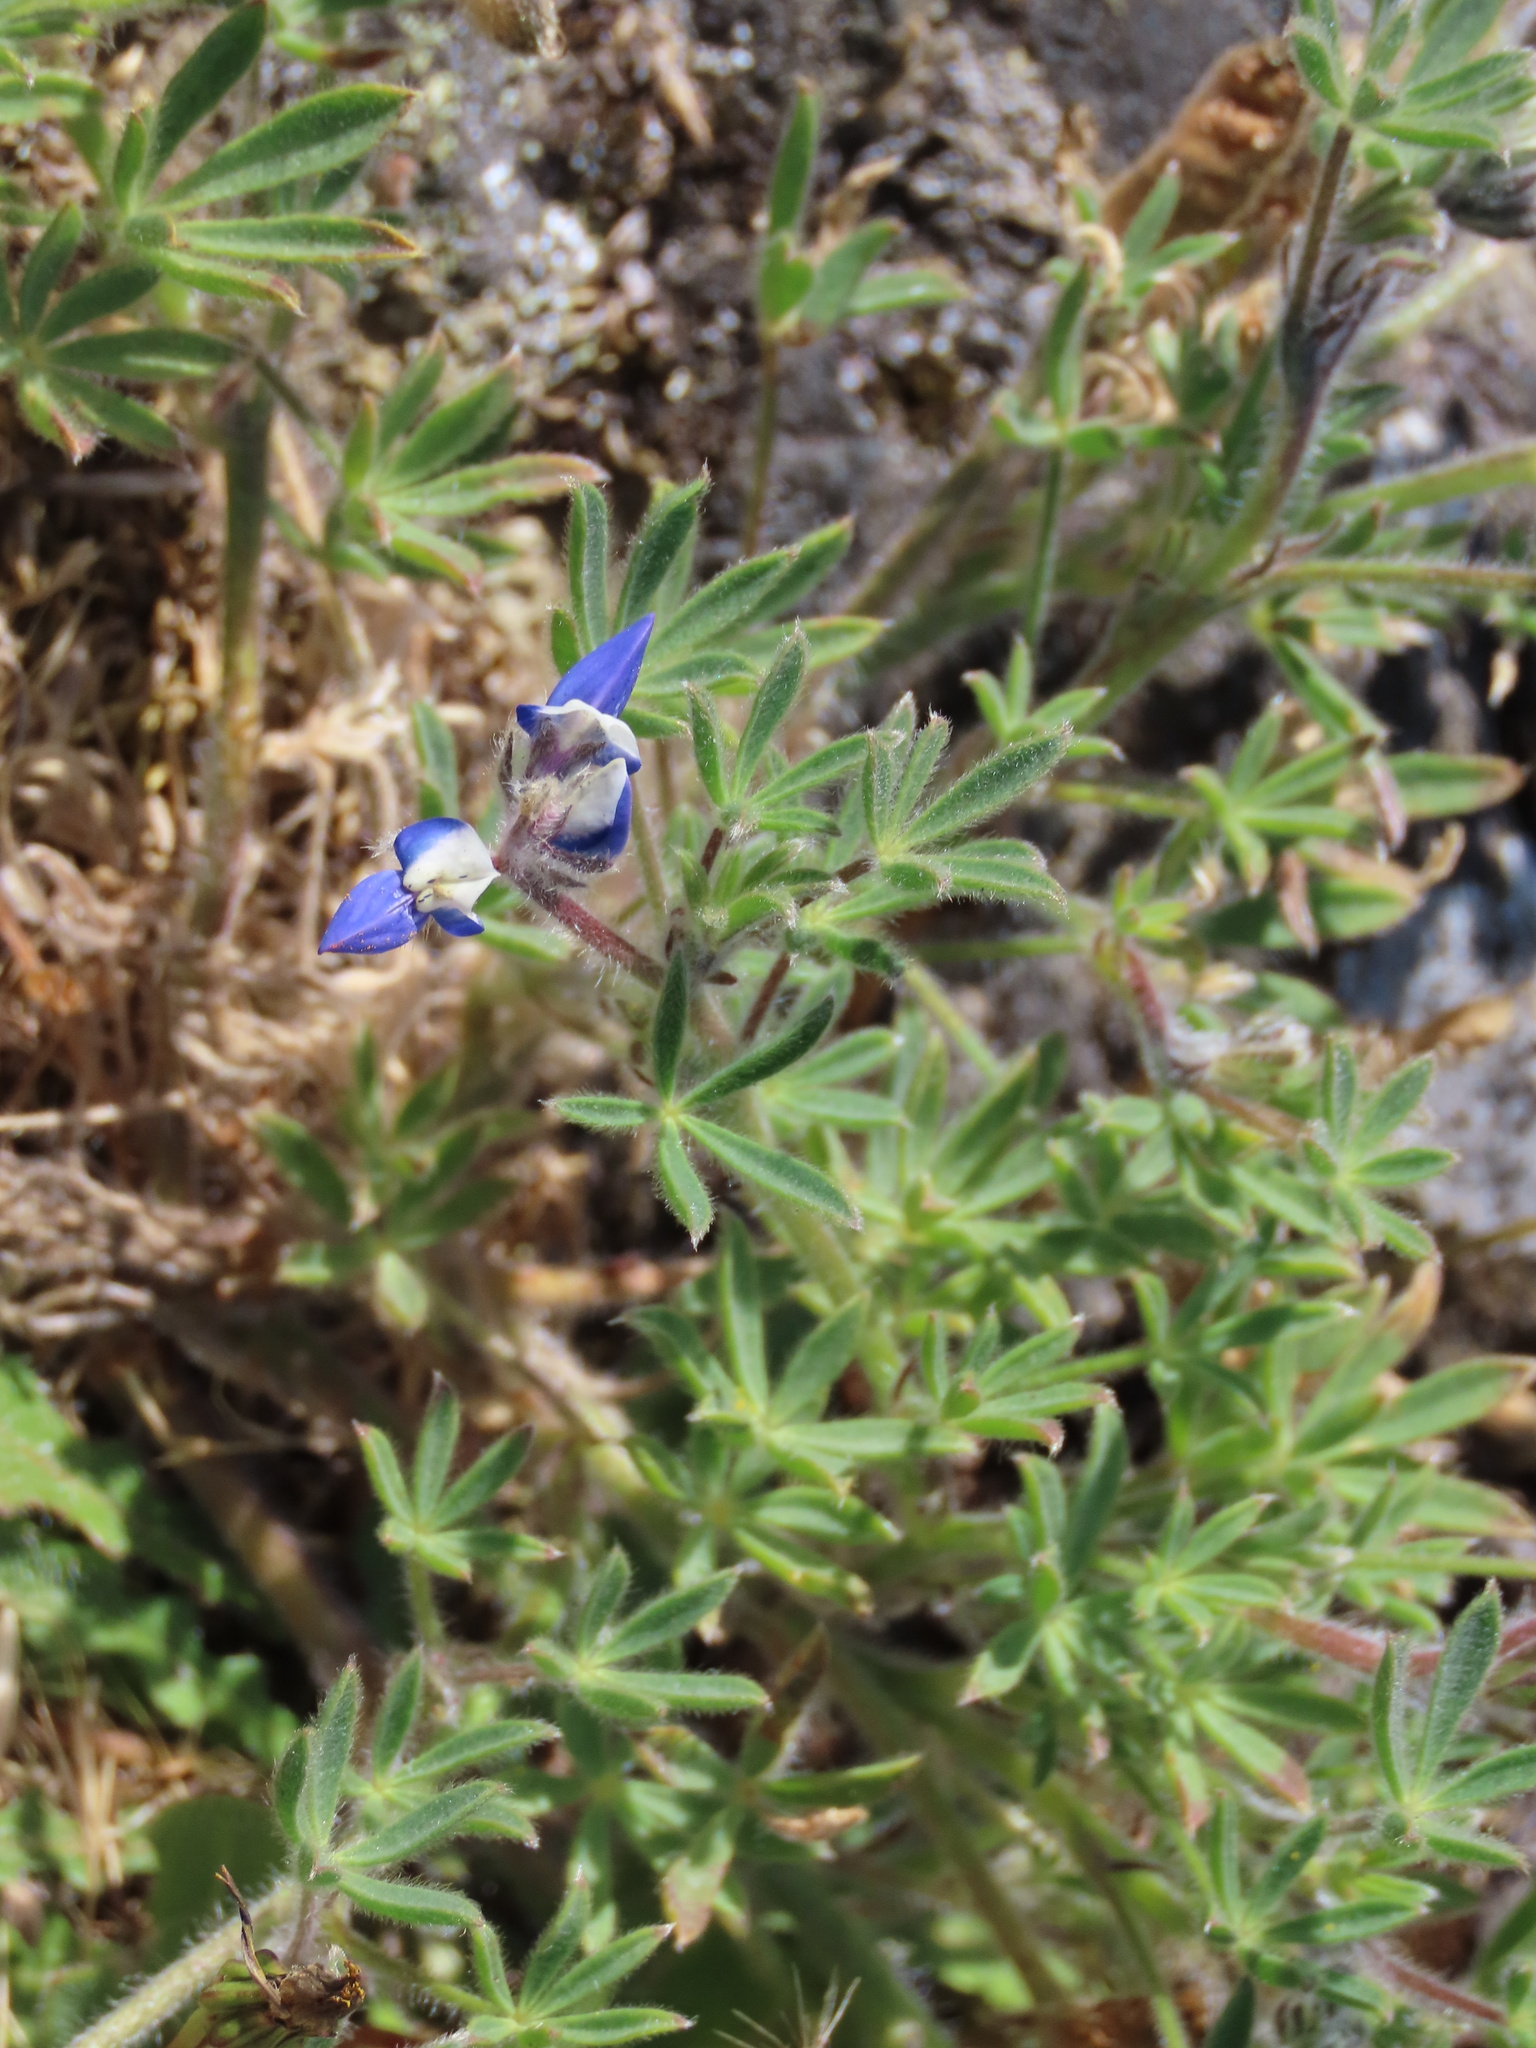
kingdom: Plantae
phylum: Tracheophyta
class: Magnoliopsida
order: Fabales
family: Fabaceae
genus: Lupinus
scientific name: Lupinus bicolor
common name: Miniature lupine
